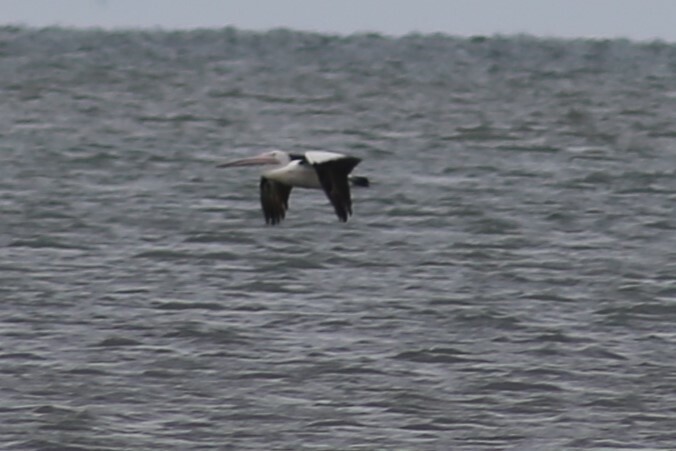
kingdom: Animalia
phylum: Chordata
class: Aves
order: Pelecaniformes
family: Pelecanidae
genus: Pelecanus
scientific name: Pelecanus conspicillatus
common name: Australian pelican
